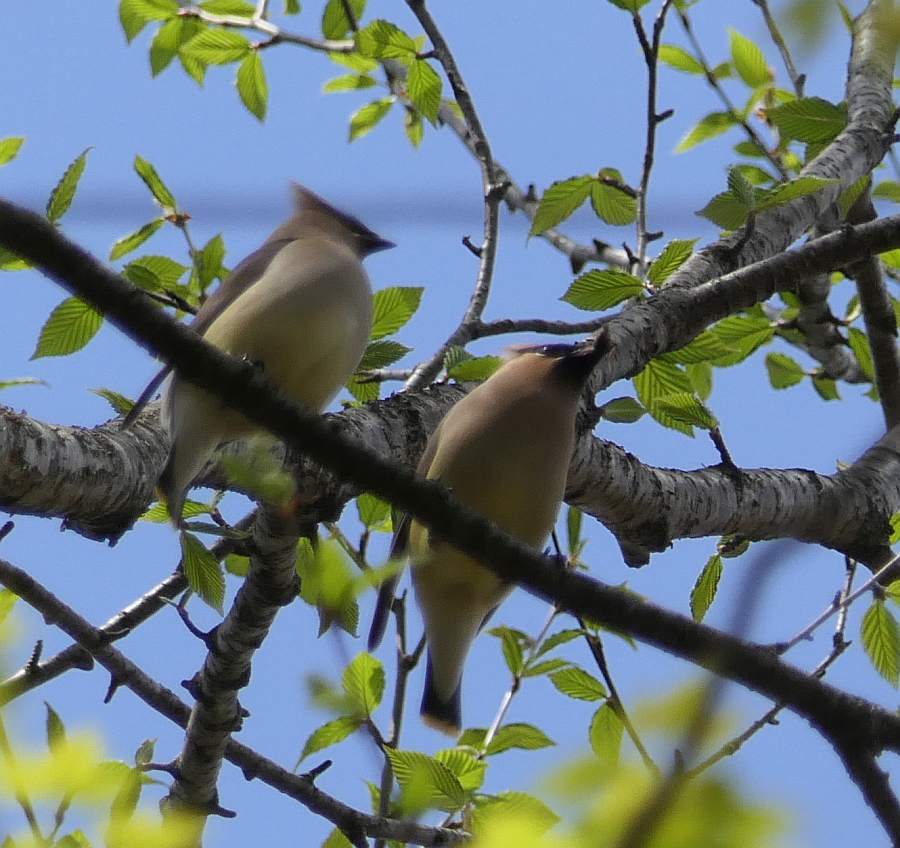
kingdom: Animalia
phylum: Chordata
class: Aves
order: Passeriformes
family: Bombycillidae
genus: Bombycilla
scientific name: Bombycilla cedrorum
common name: Cedar waxwing
